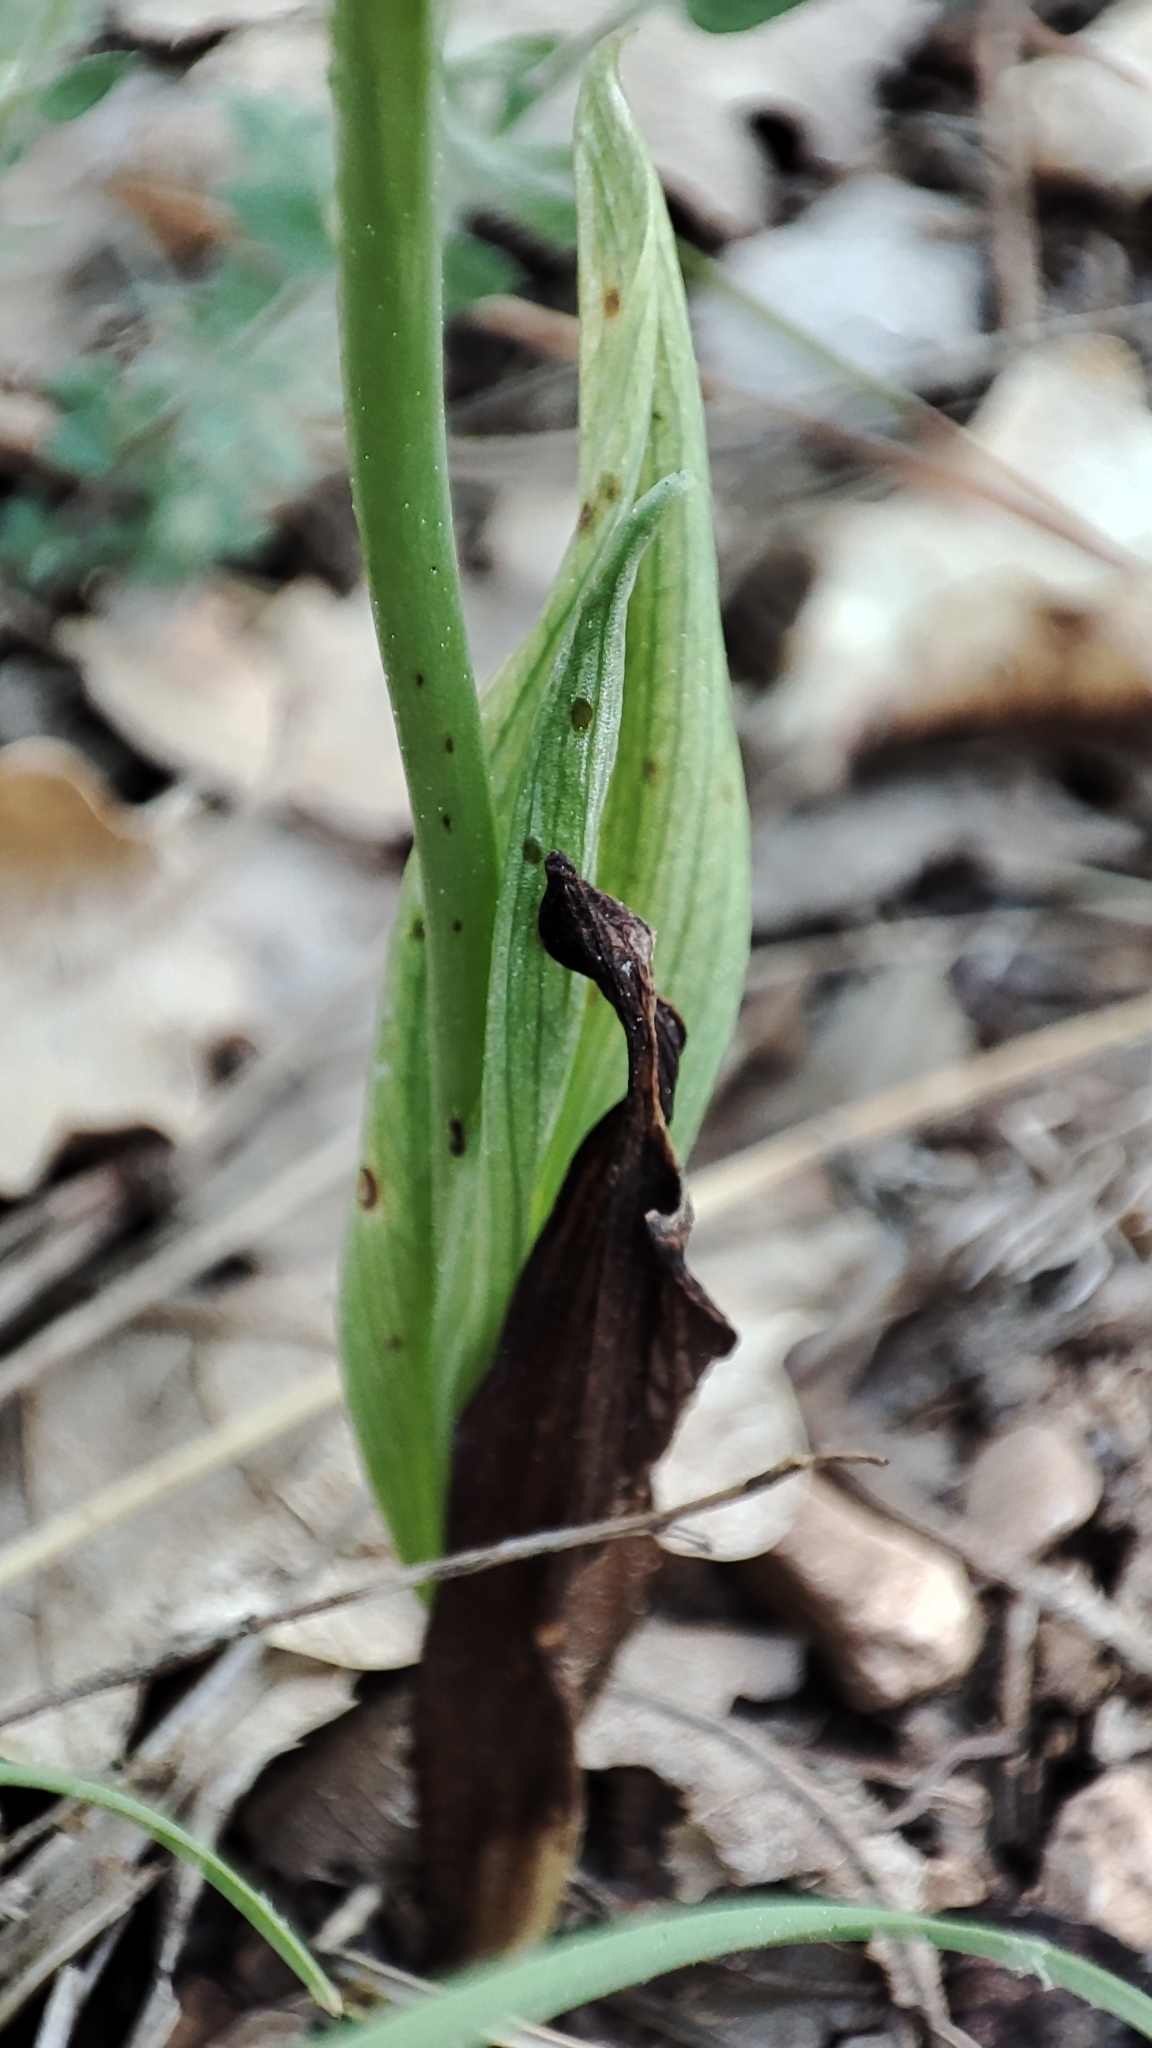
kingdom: Plantae
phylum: Tracheophyta
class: Liliopsida
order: Asparagales
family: Orchidaceae
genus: Ophrys
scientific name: Ophrys scolopax
